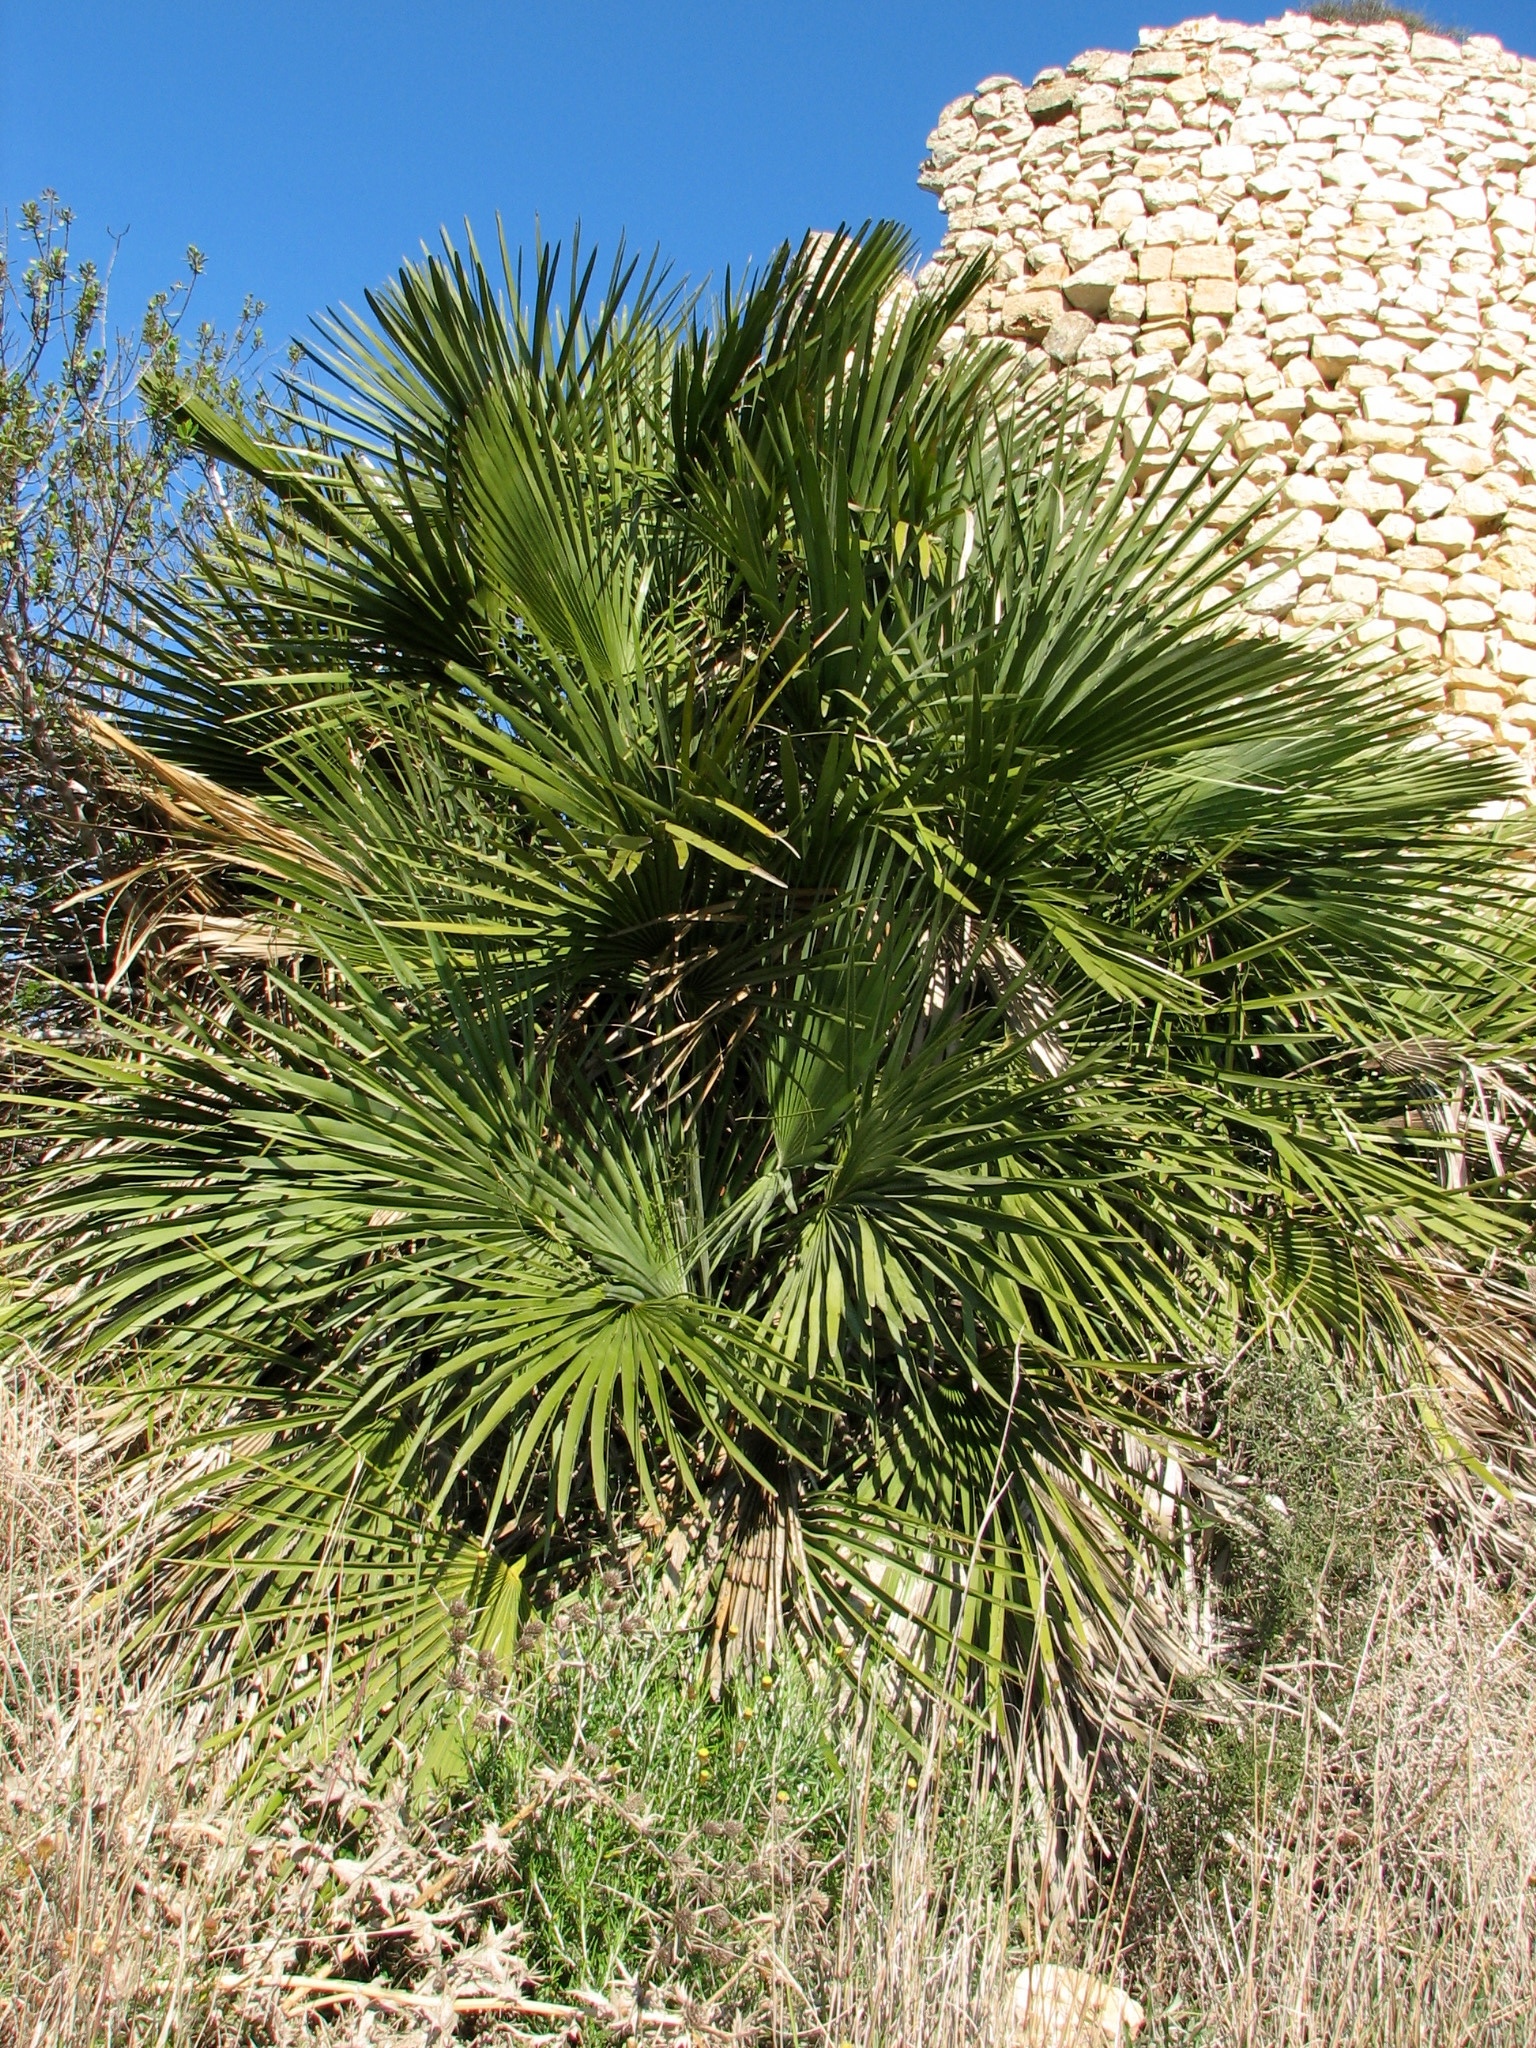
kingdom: Plantae
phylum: Tracheophyta
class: Liliopsida
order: Arecales
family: Arecaceae
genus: Chamaerops
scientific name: Chamaerops humilis
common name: Dwarf fan palm
